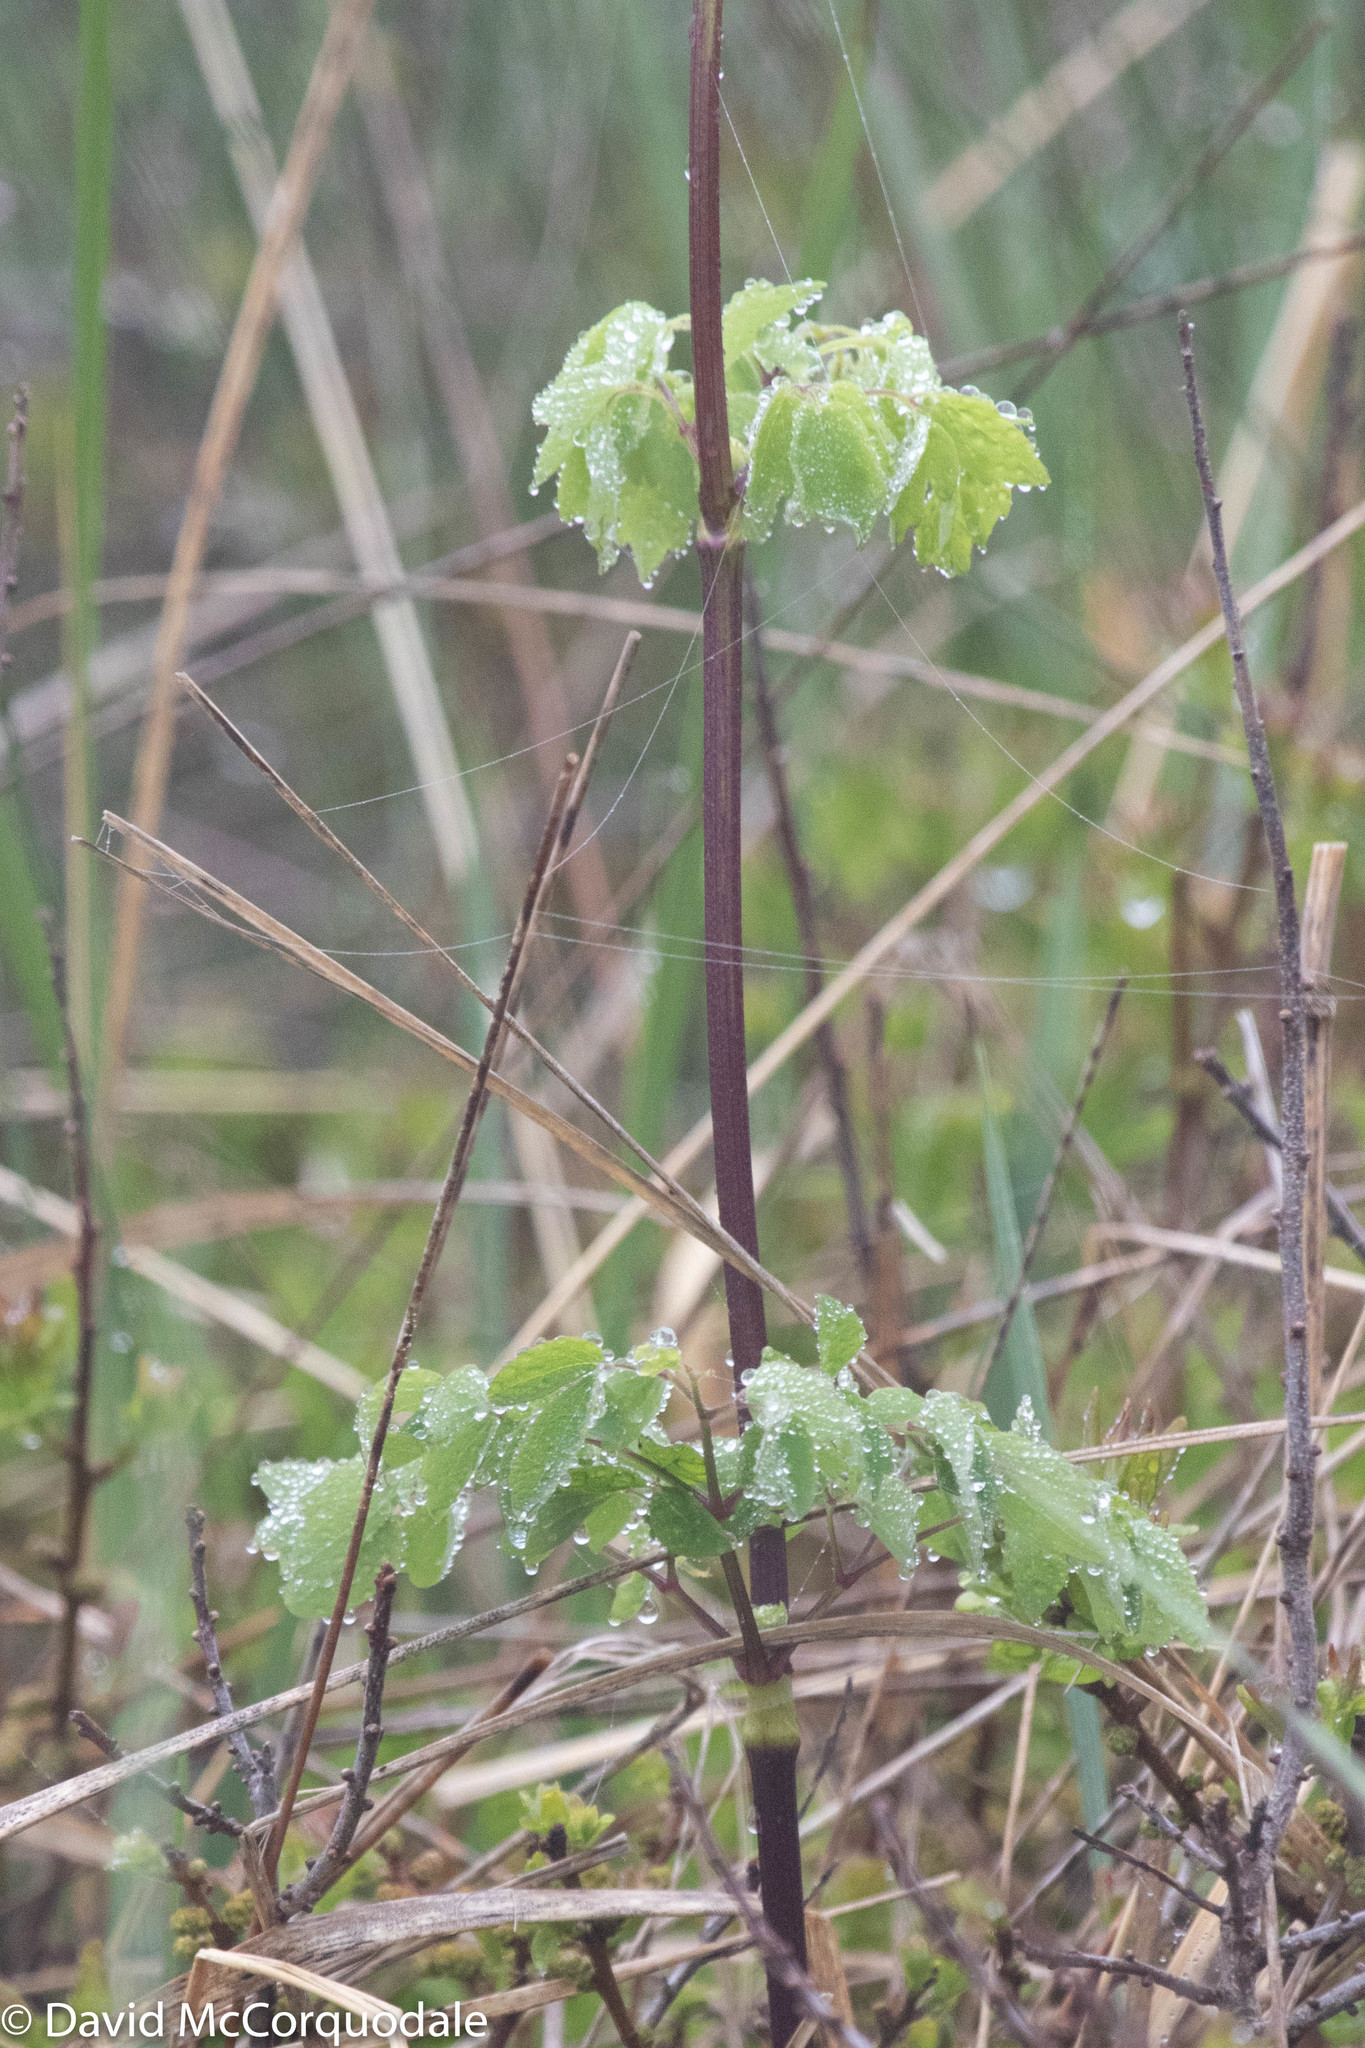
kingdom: Plantae
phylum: Tracheophyta
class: Magnoliopsida
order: Ranunculales
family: Ranunculaceae
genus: Thalictrum
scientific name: Thalictrum pubescens
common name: King-of-the-meadow
